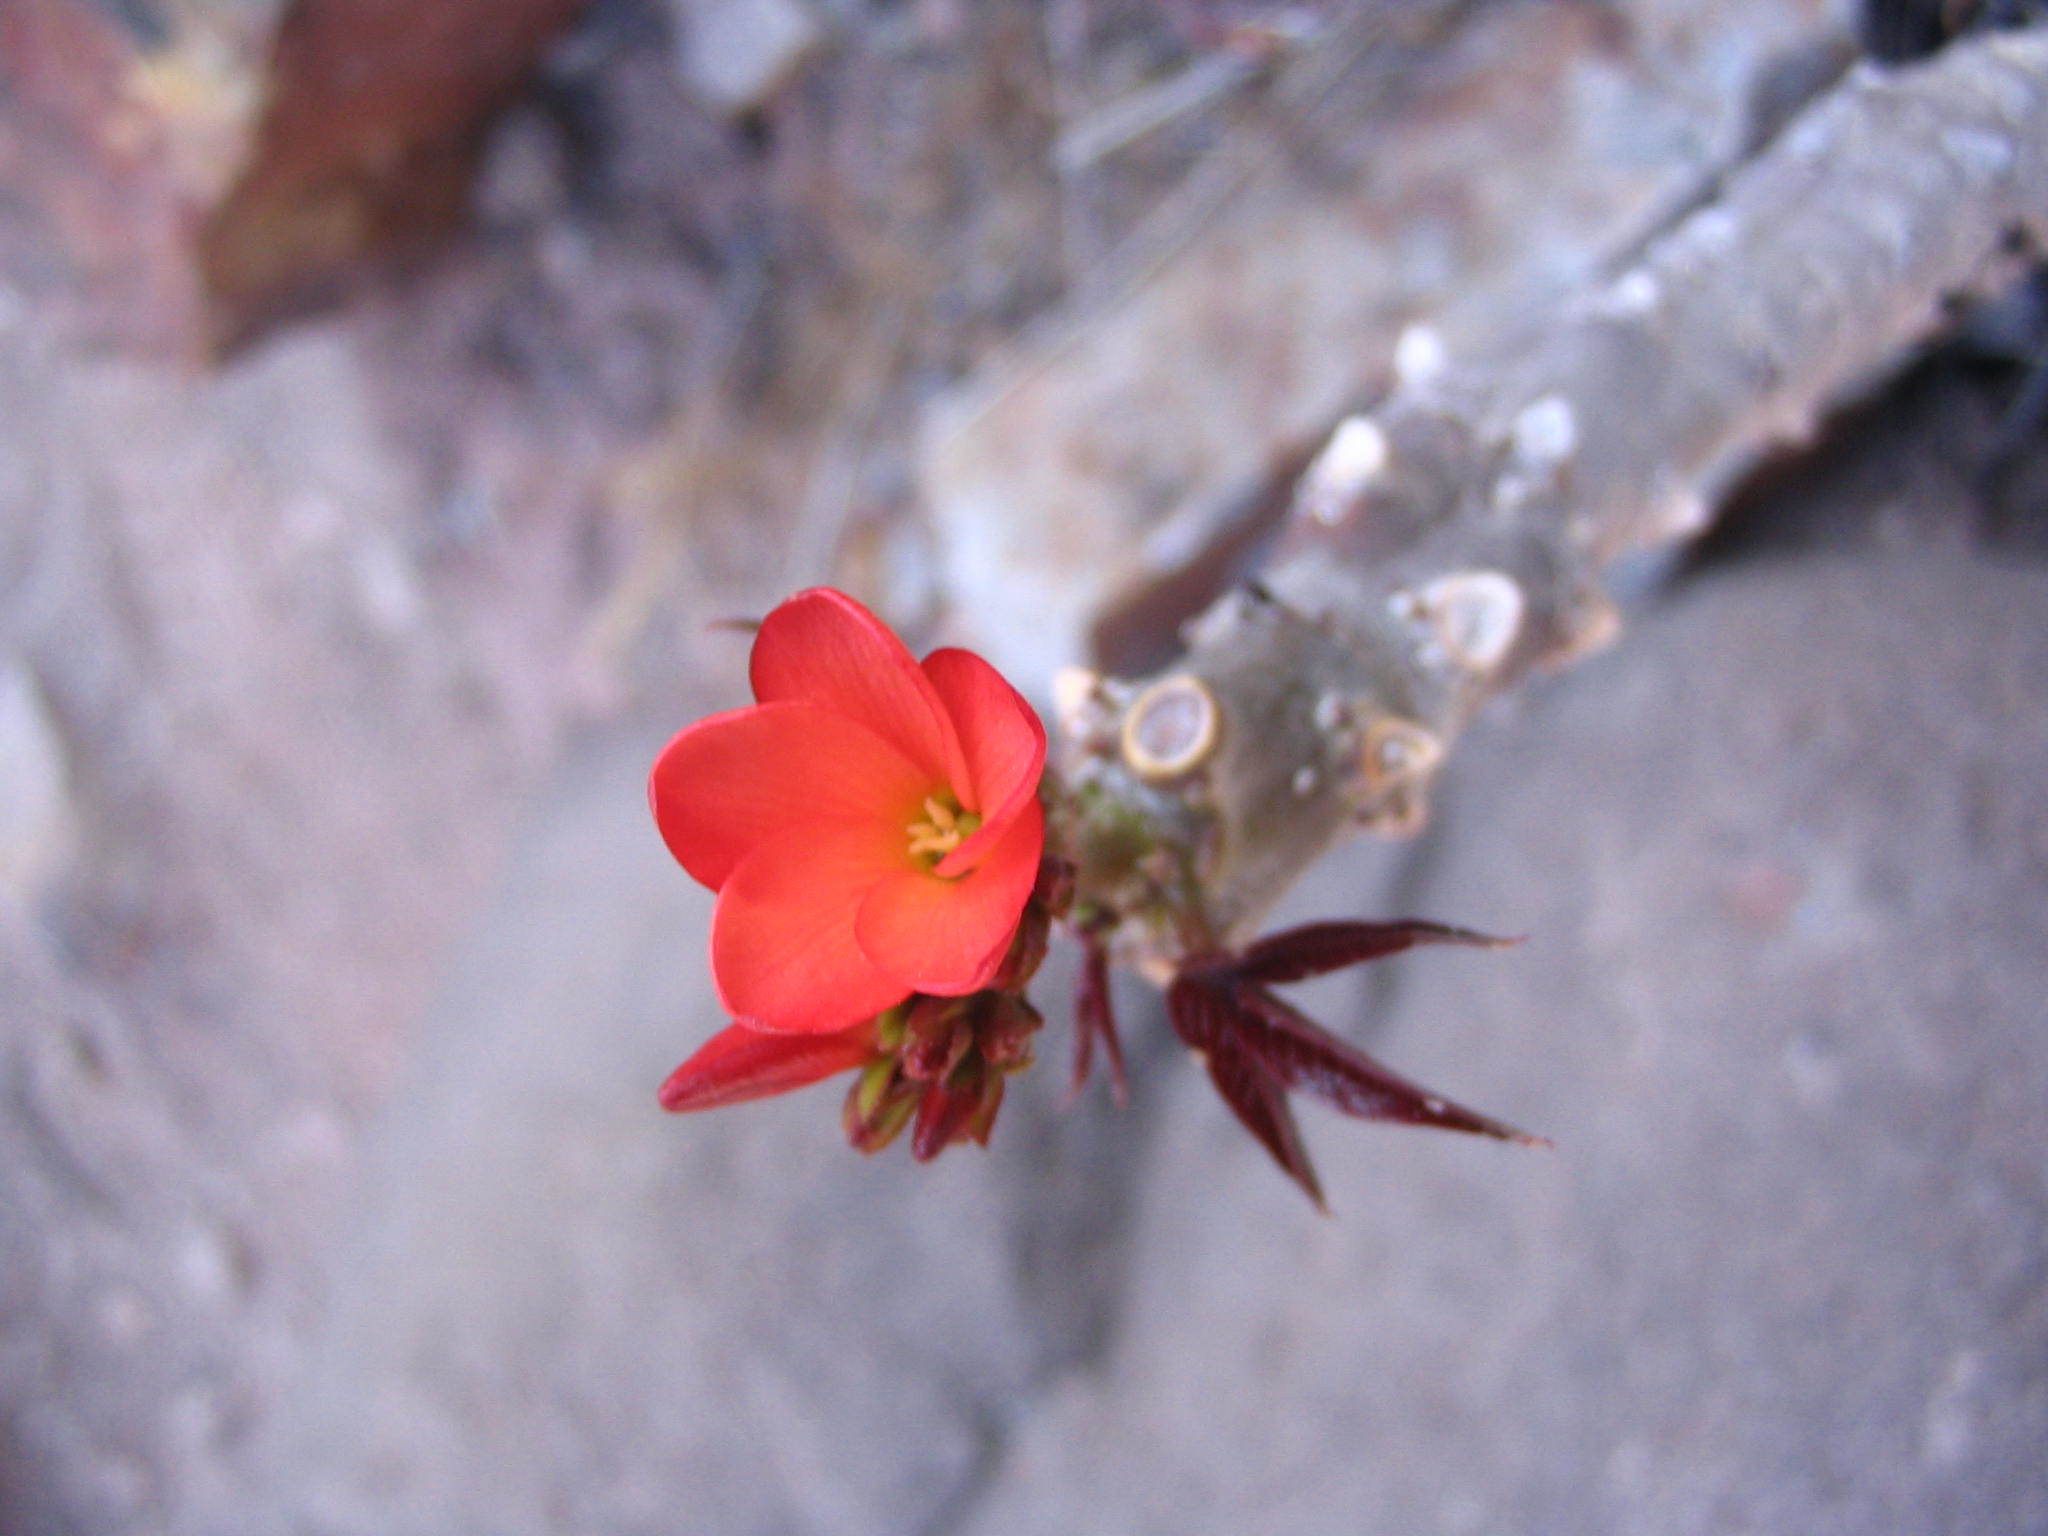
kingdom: Plantae
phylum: Tracheophyta
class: Magnoliopsida
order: Malpighiales
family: Euphorbiaceae
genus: Jatropha
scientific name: Jatropha macrantha
